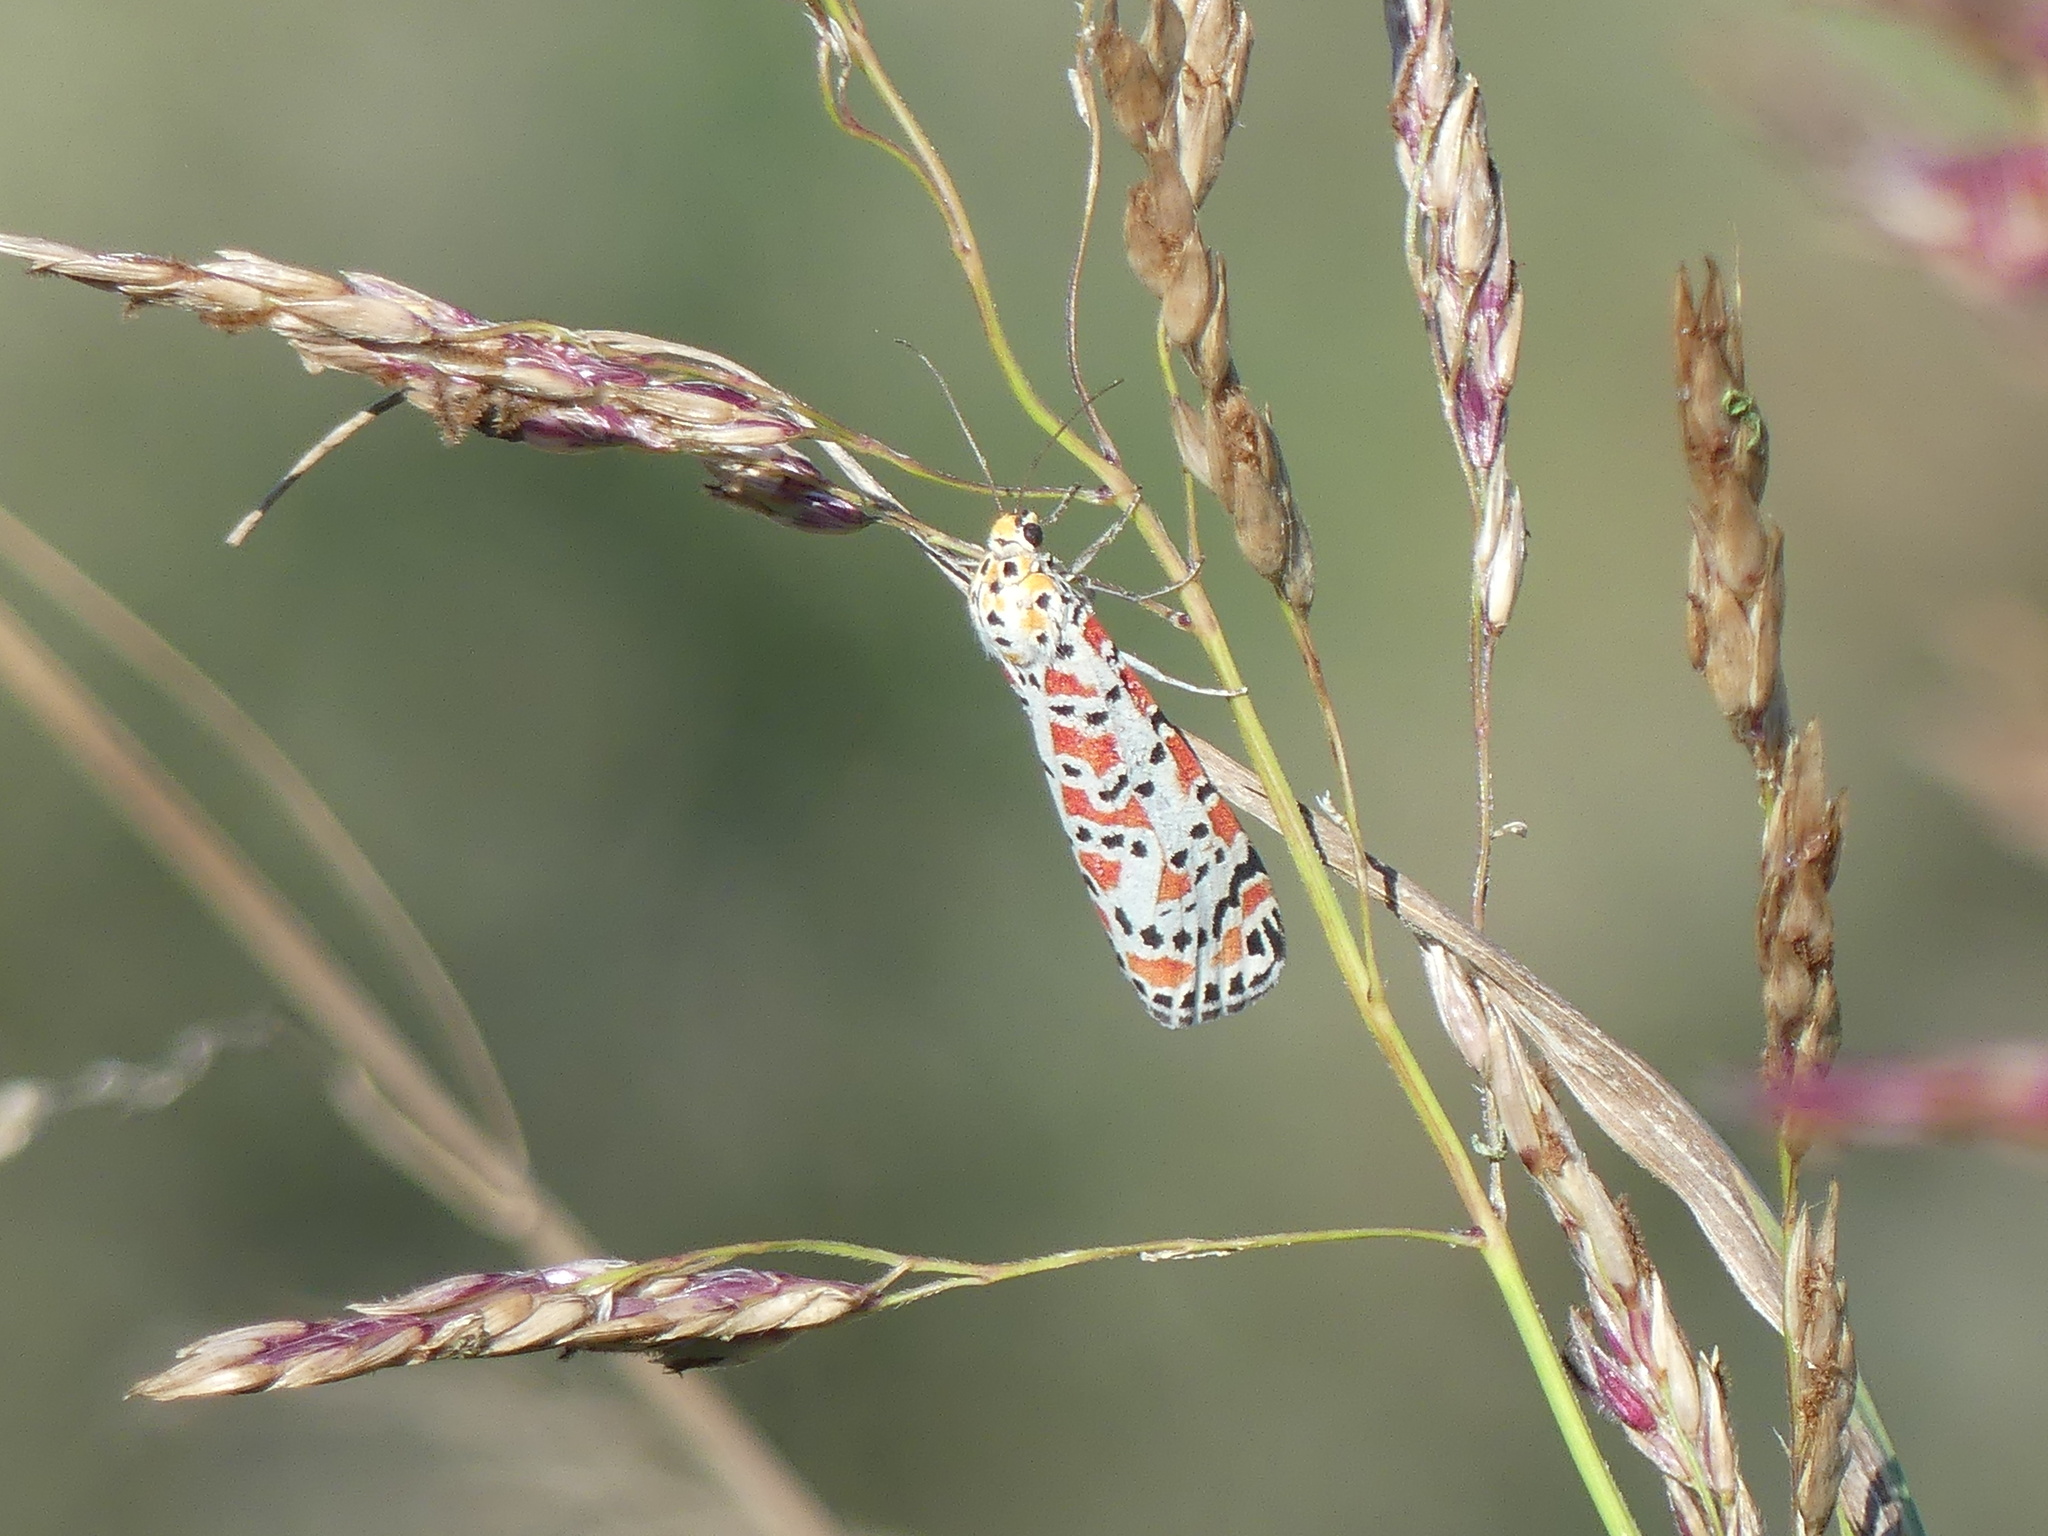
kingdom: Animalia
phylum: Arthropoda
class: Insecta
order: Lepidoptera
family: Erebidae
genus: Utetheisa
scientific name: Utetheisa pulchella
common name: Crimson speckled
